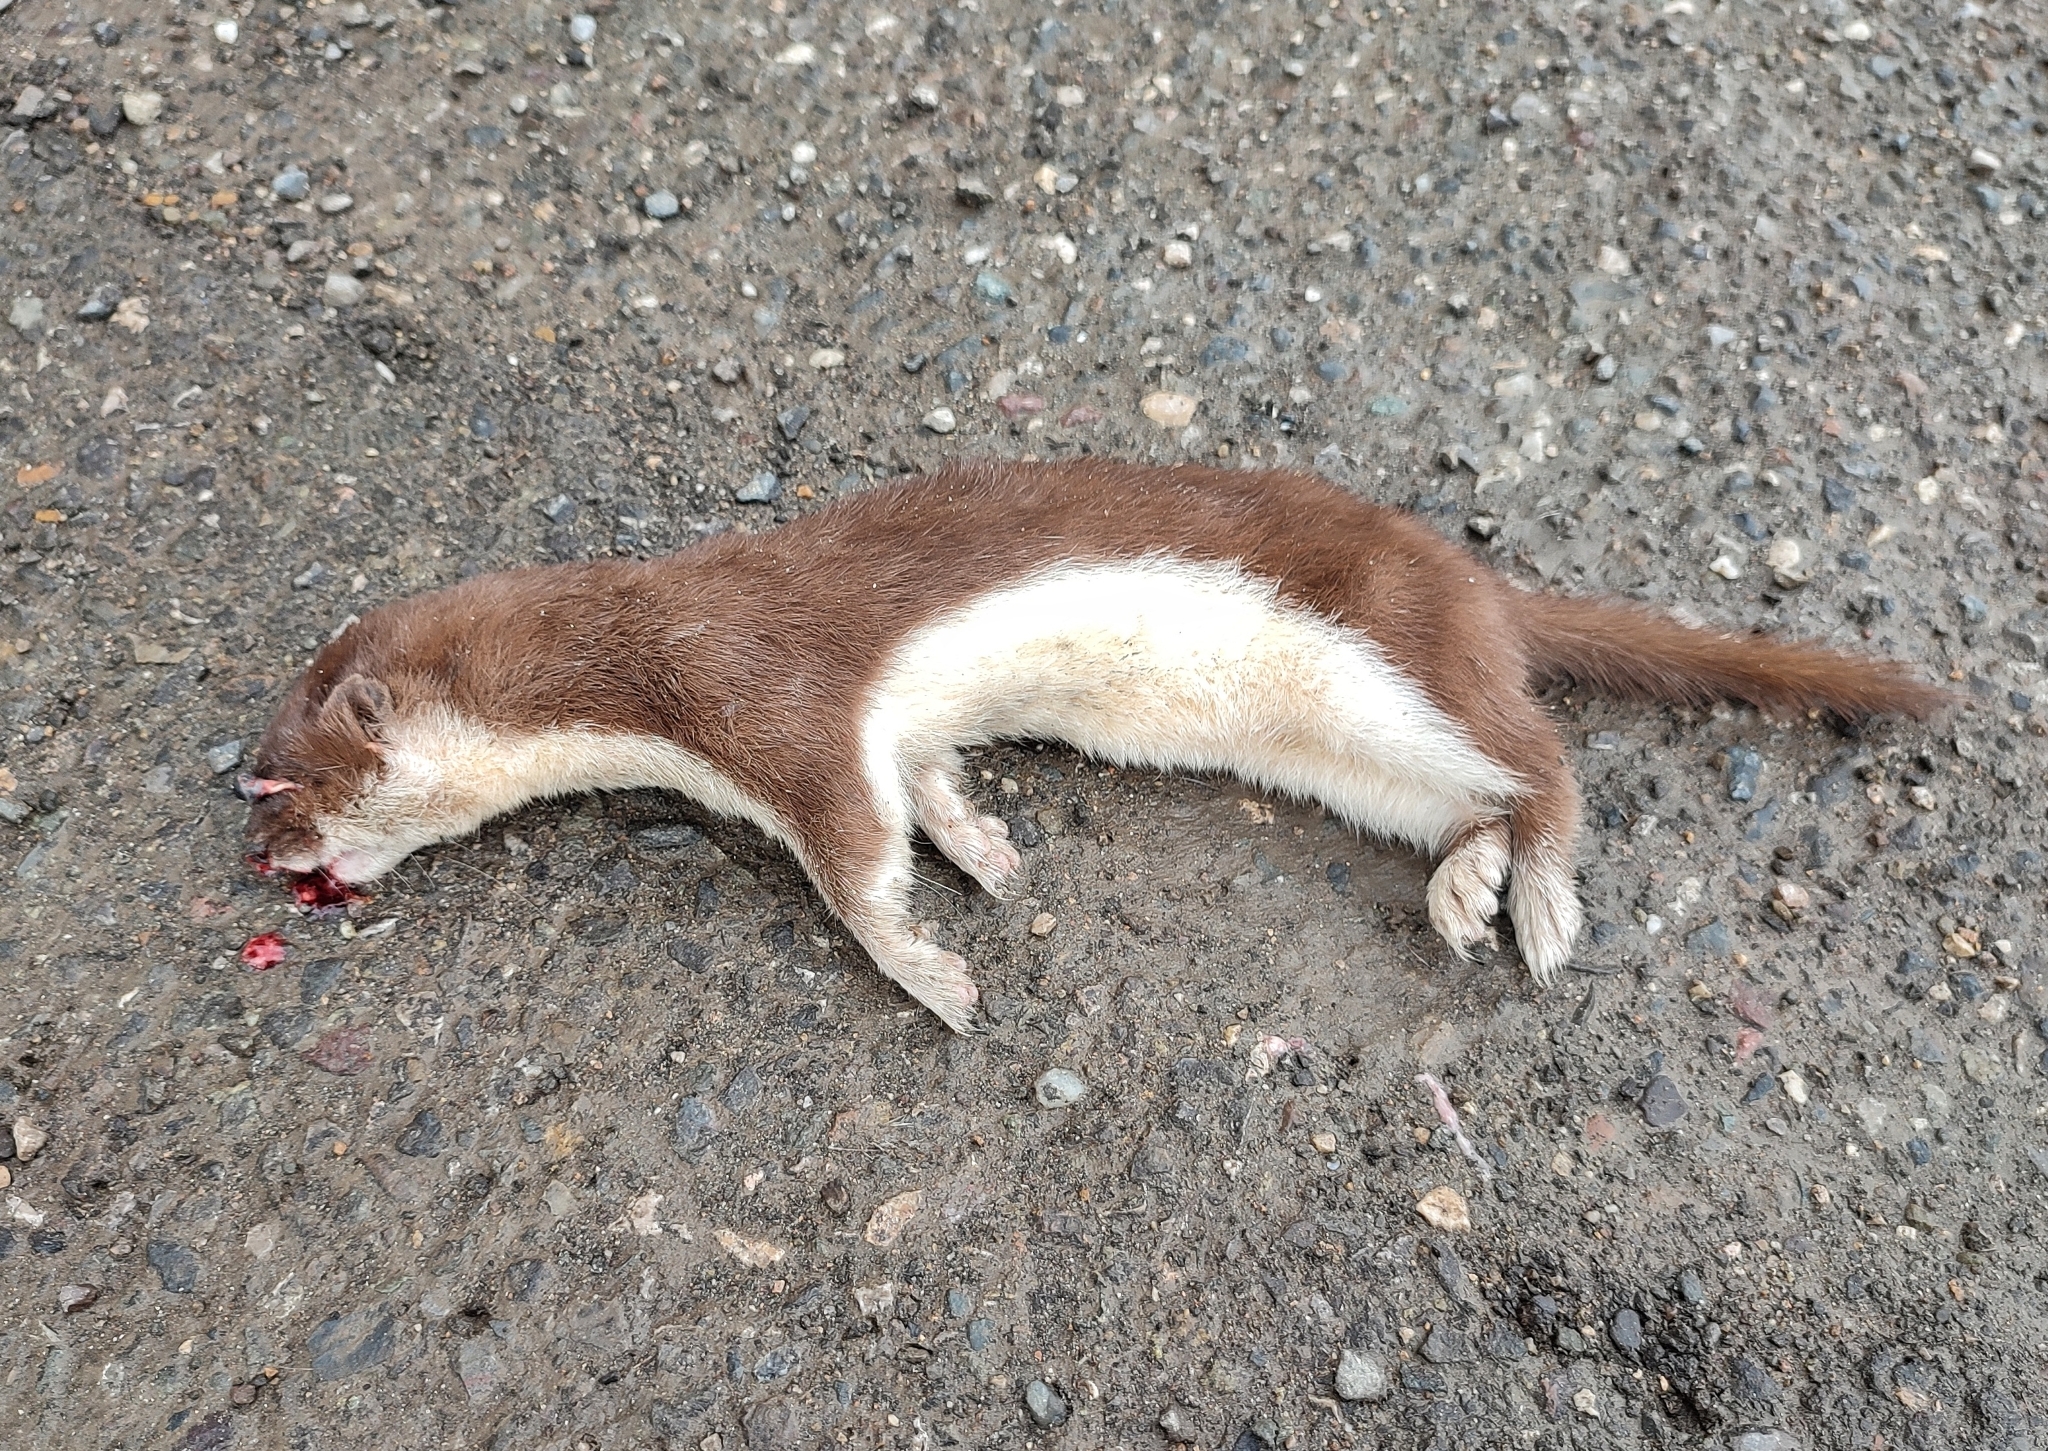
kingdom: Animalia
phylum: Chordata
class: Mammalia
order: Carnivora
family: Mustelidae
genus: Mustela
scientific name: Mustela nivalis
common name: Least weasel
